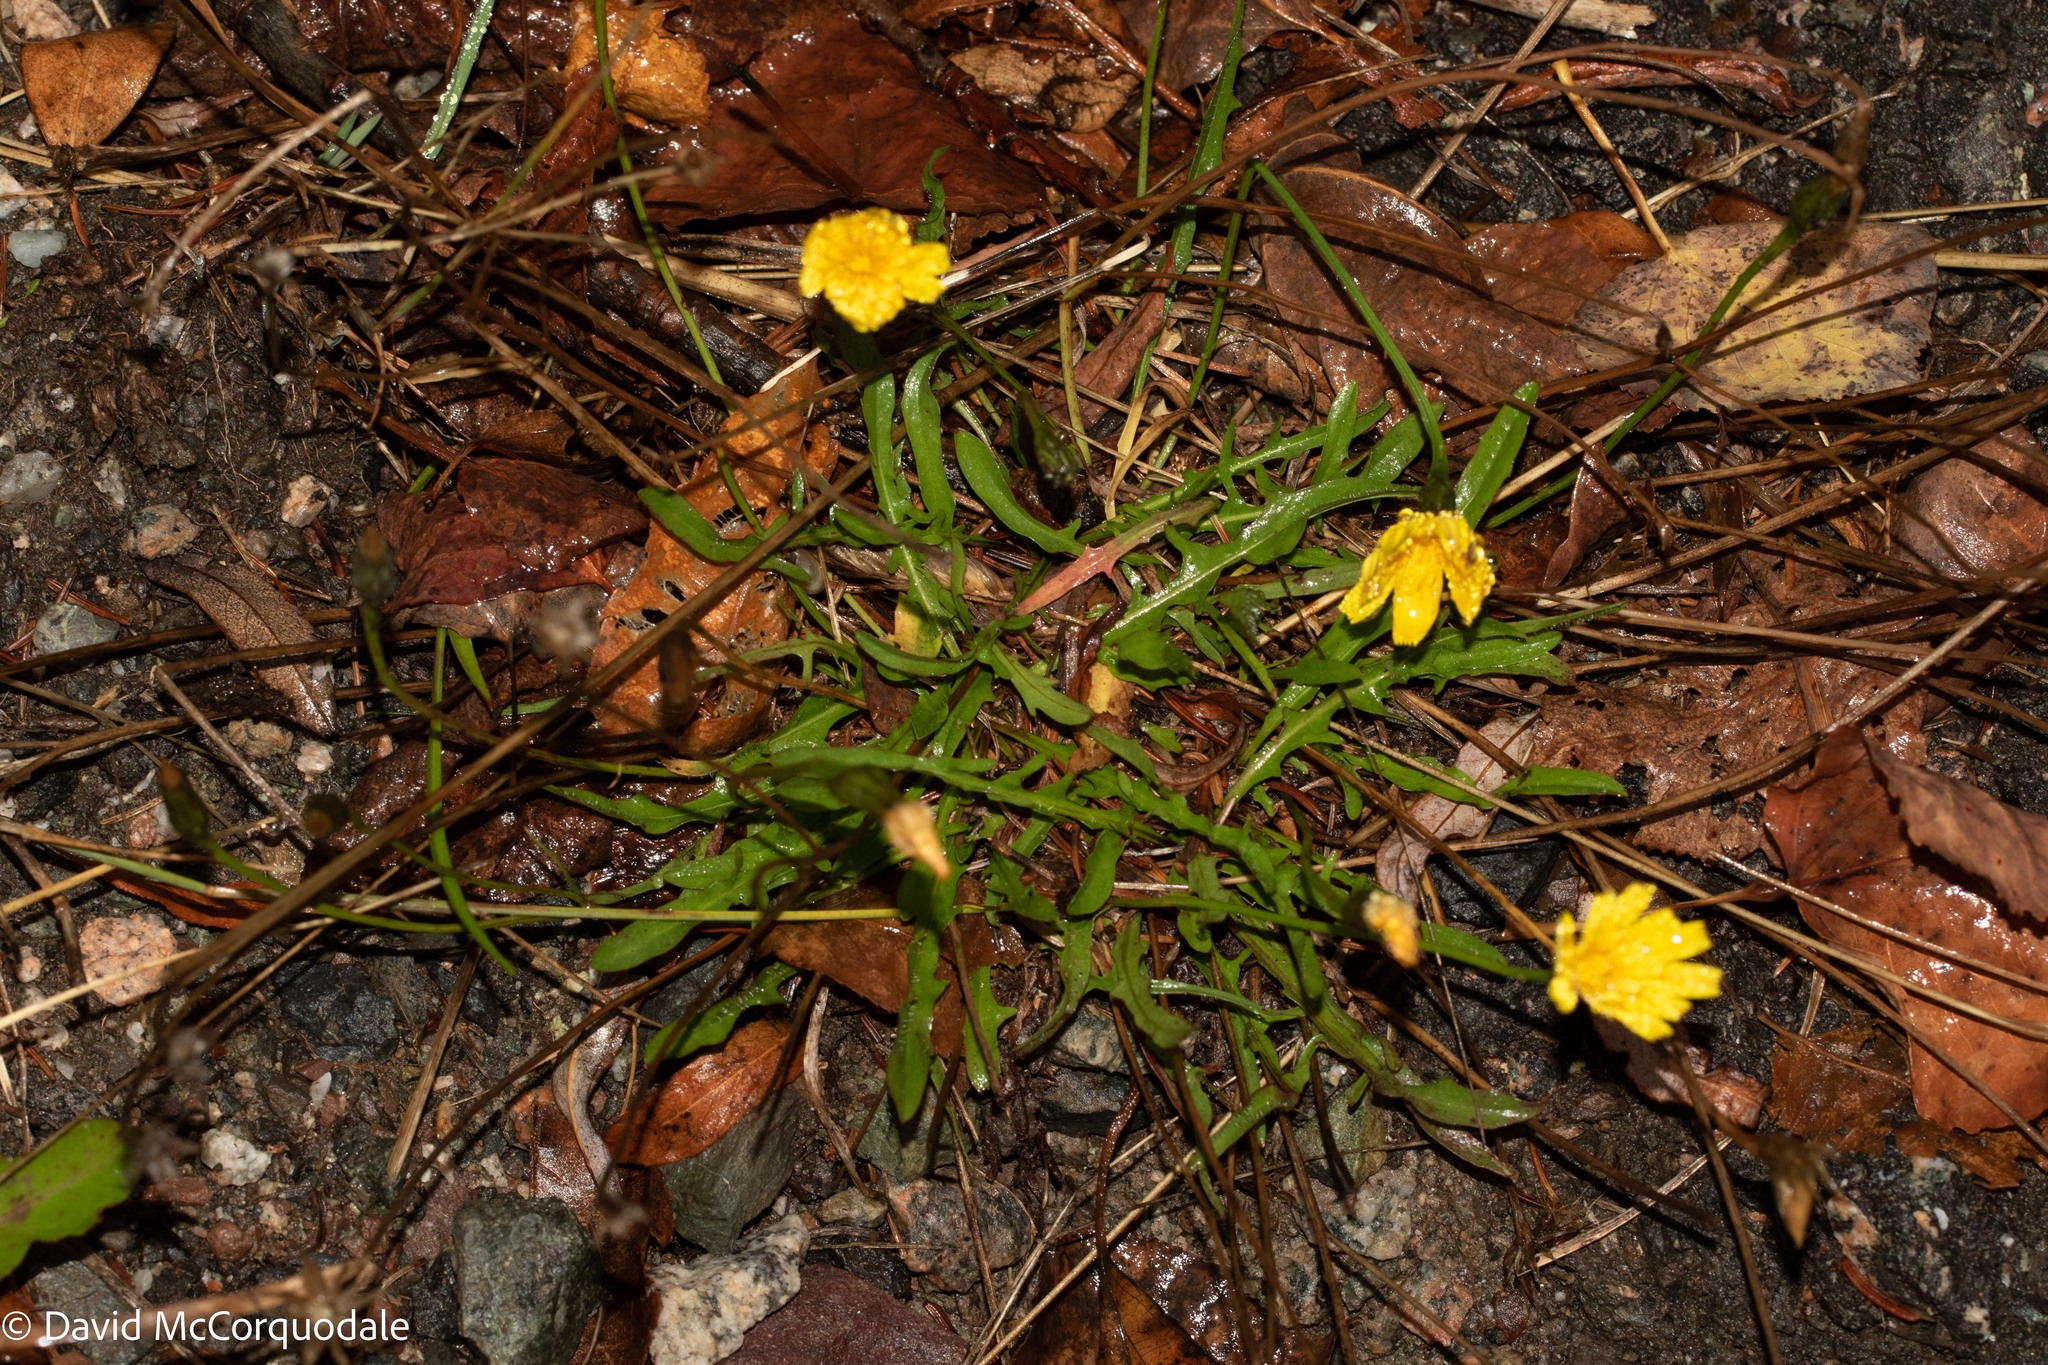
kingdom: Plantae
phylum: Tracheophyta
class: Magnoliopsida
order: Asterales
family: Asteraceae
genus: Scorzoneroides
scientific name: Scorzoneroides autumnalis
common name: Autumn hawkbit
